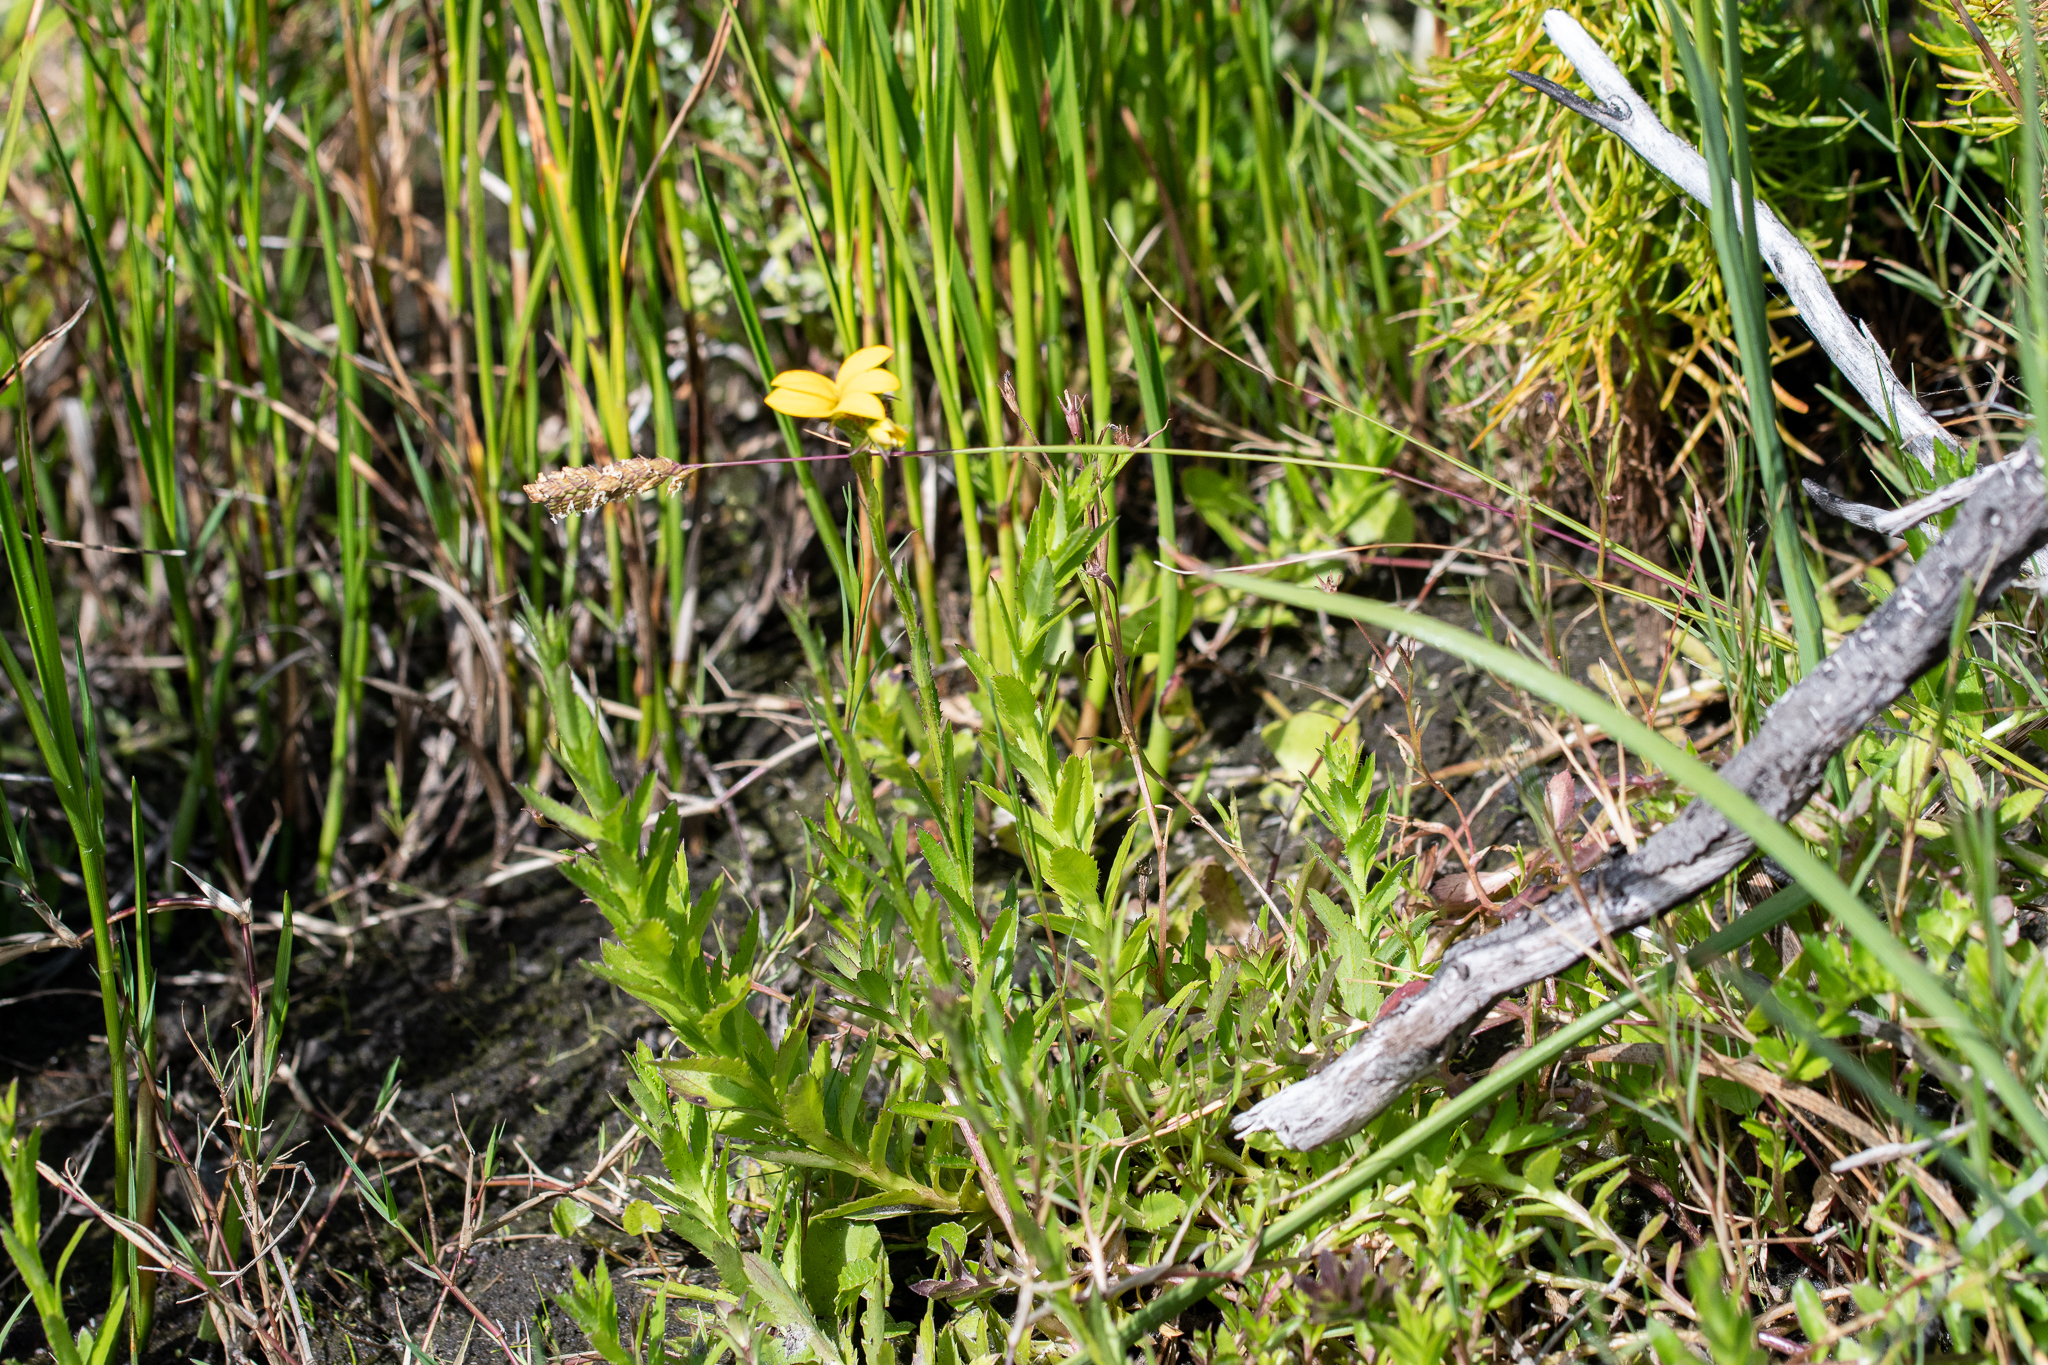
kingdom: Plantae
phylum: Tracheophyta
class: Magnoliopsida
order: Asterales
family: Campanulaceae
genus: Monopsis
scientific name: Monopsis lutea
